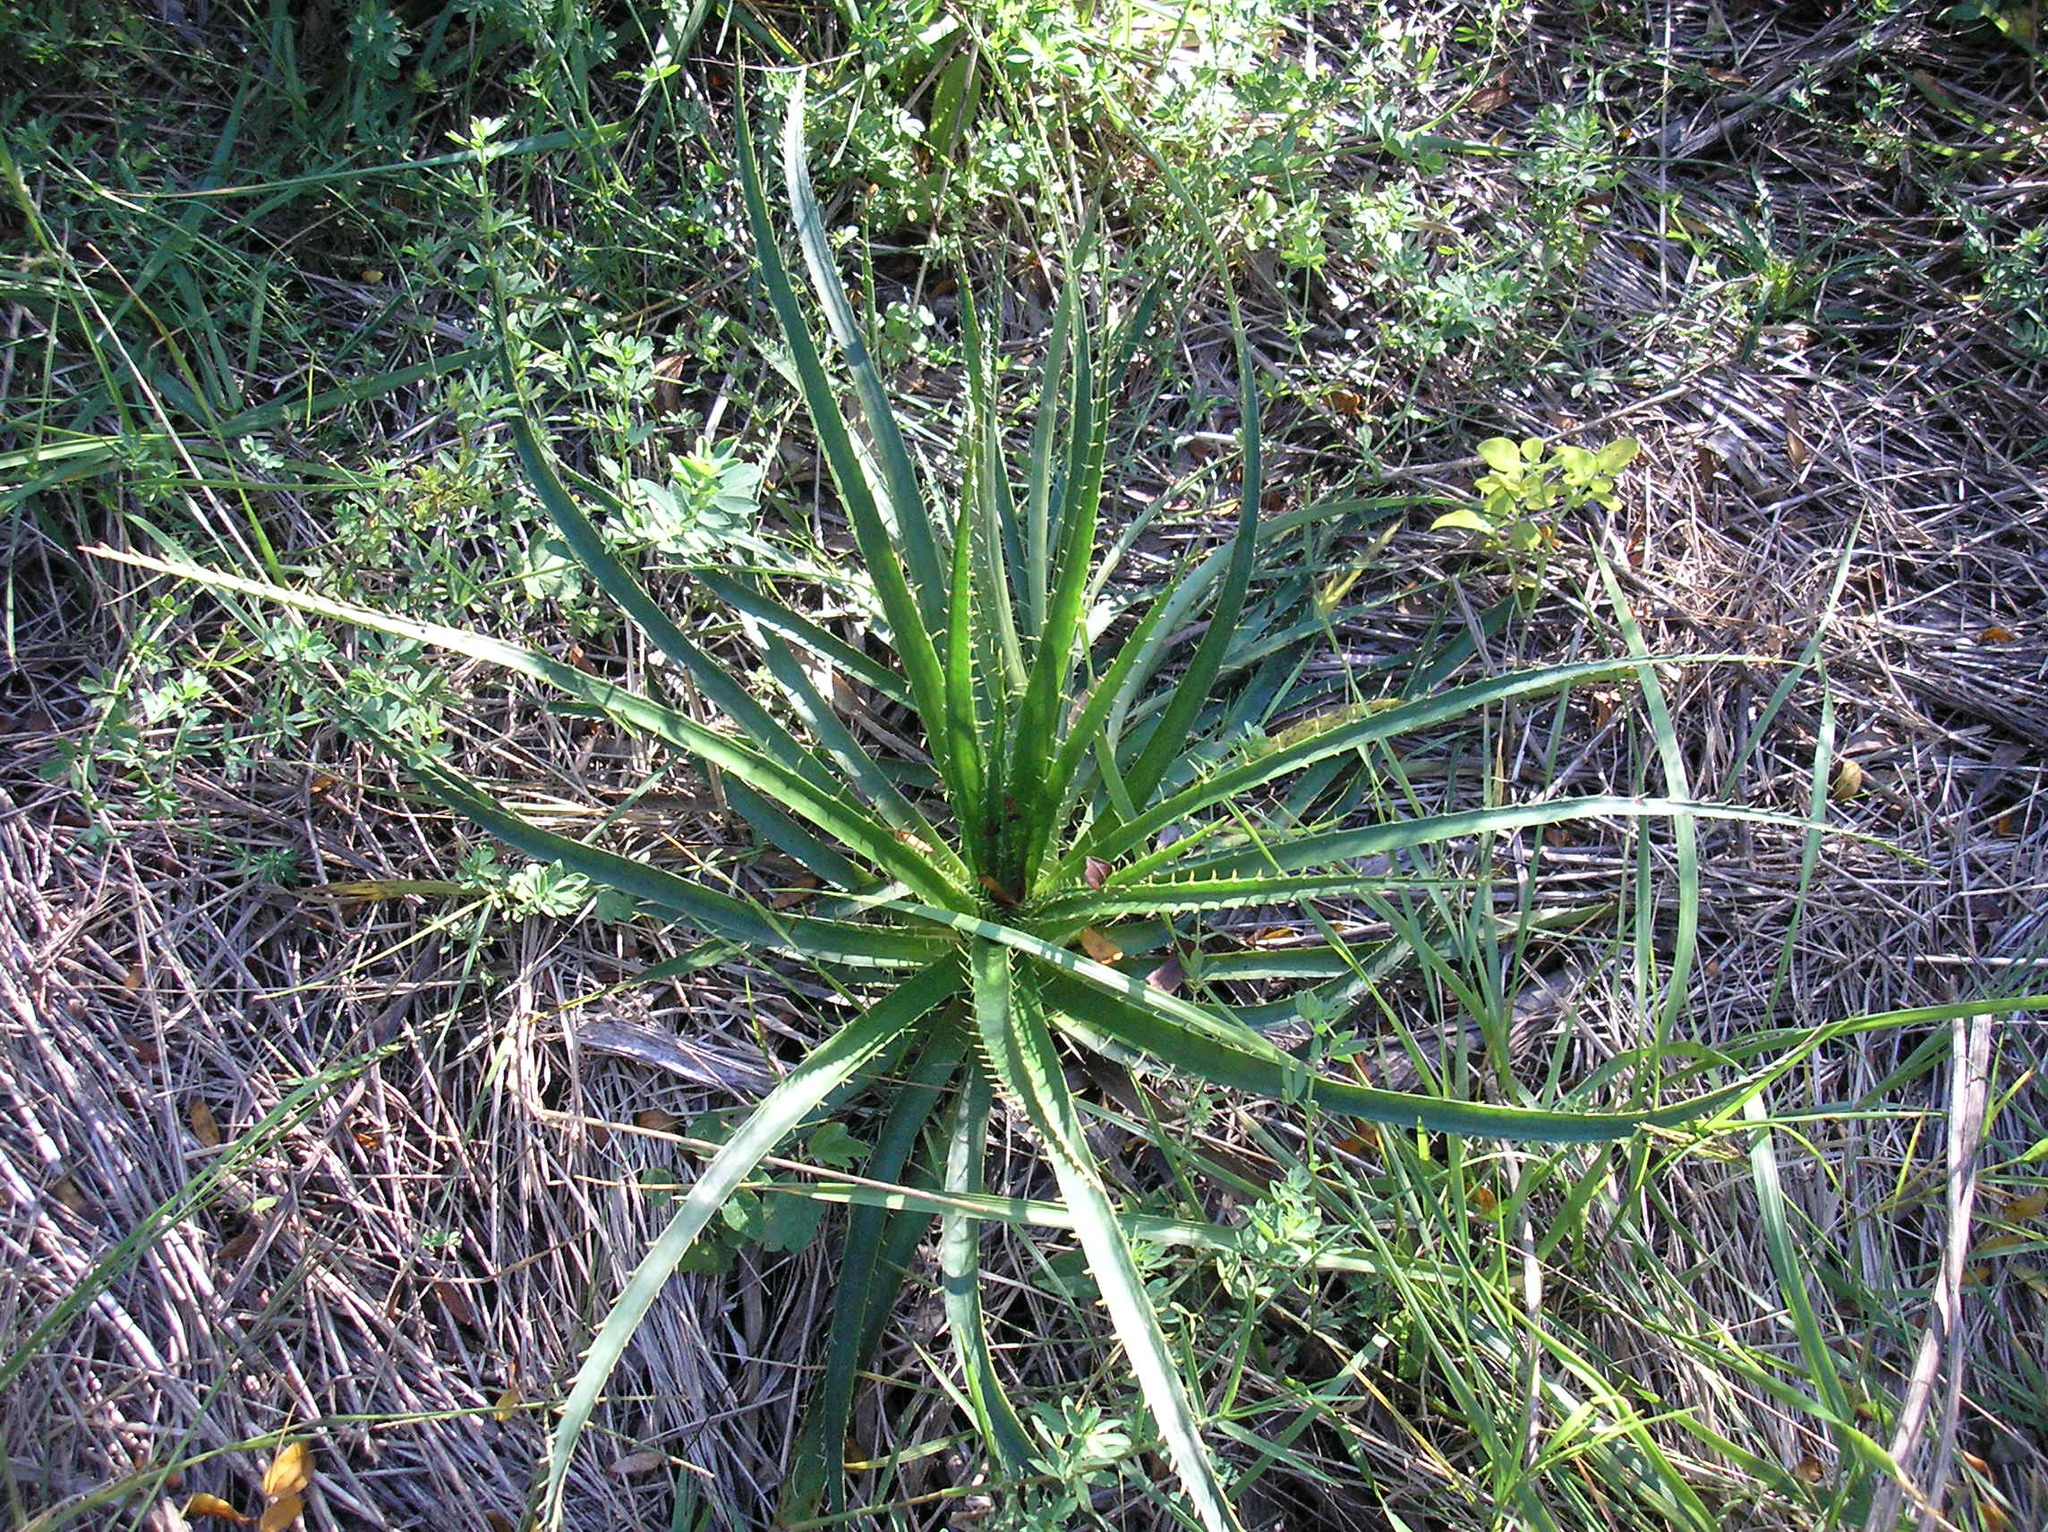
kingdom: Plantae
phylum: Tracheophyta
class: Magnoliopsida
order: Apiales
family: Apiaceae
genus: Eryngium
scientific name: Eryngium humboldtii
